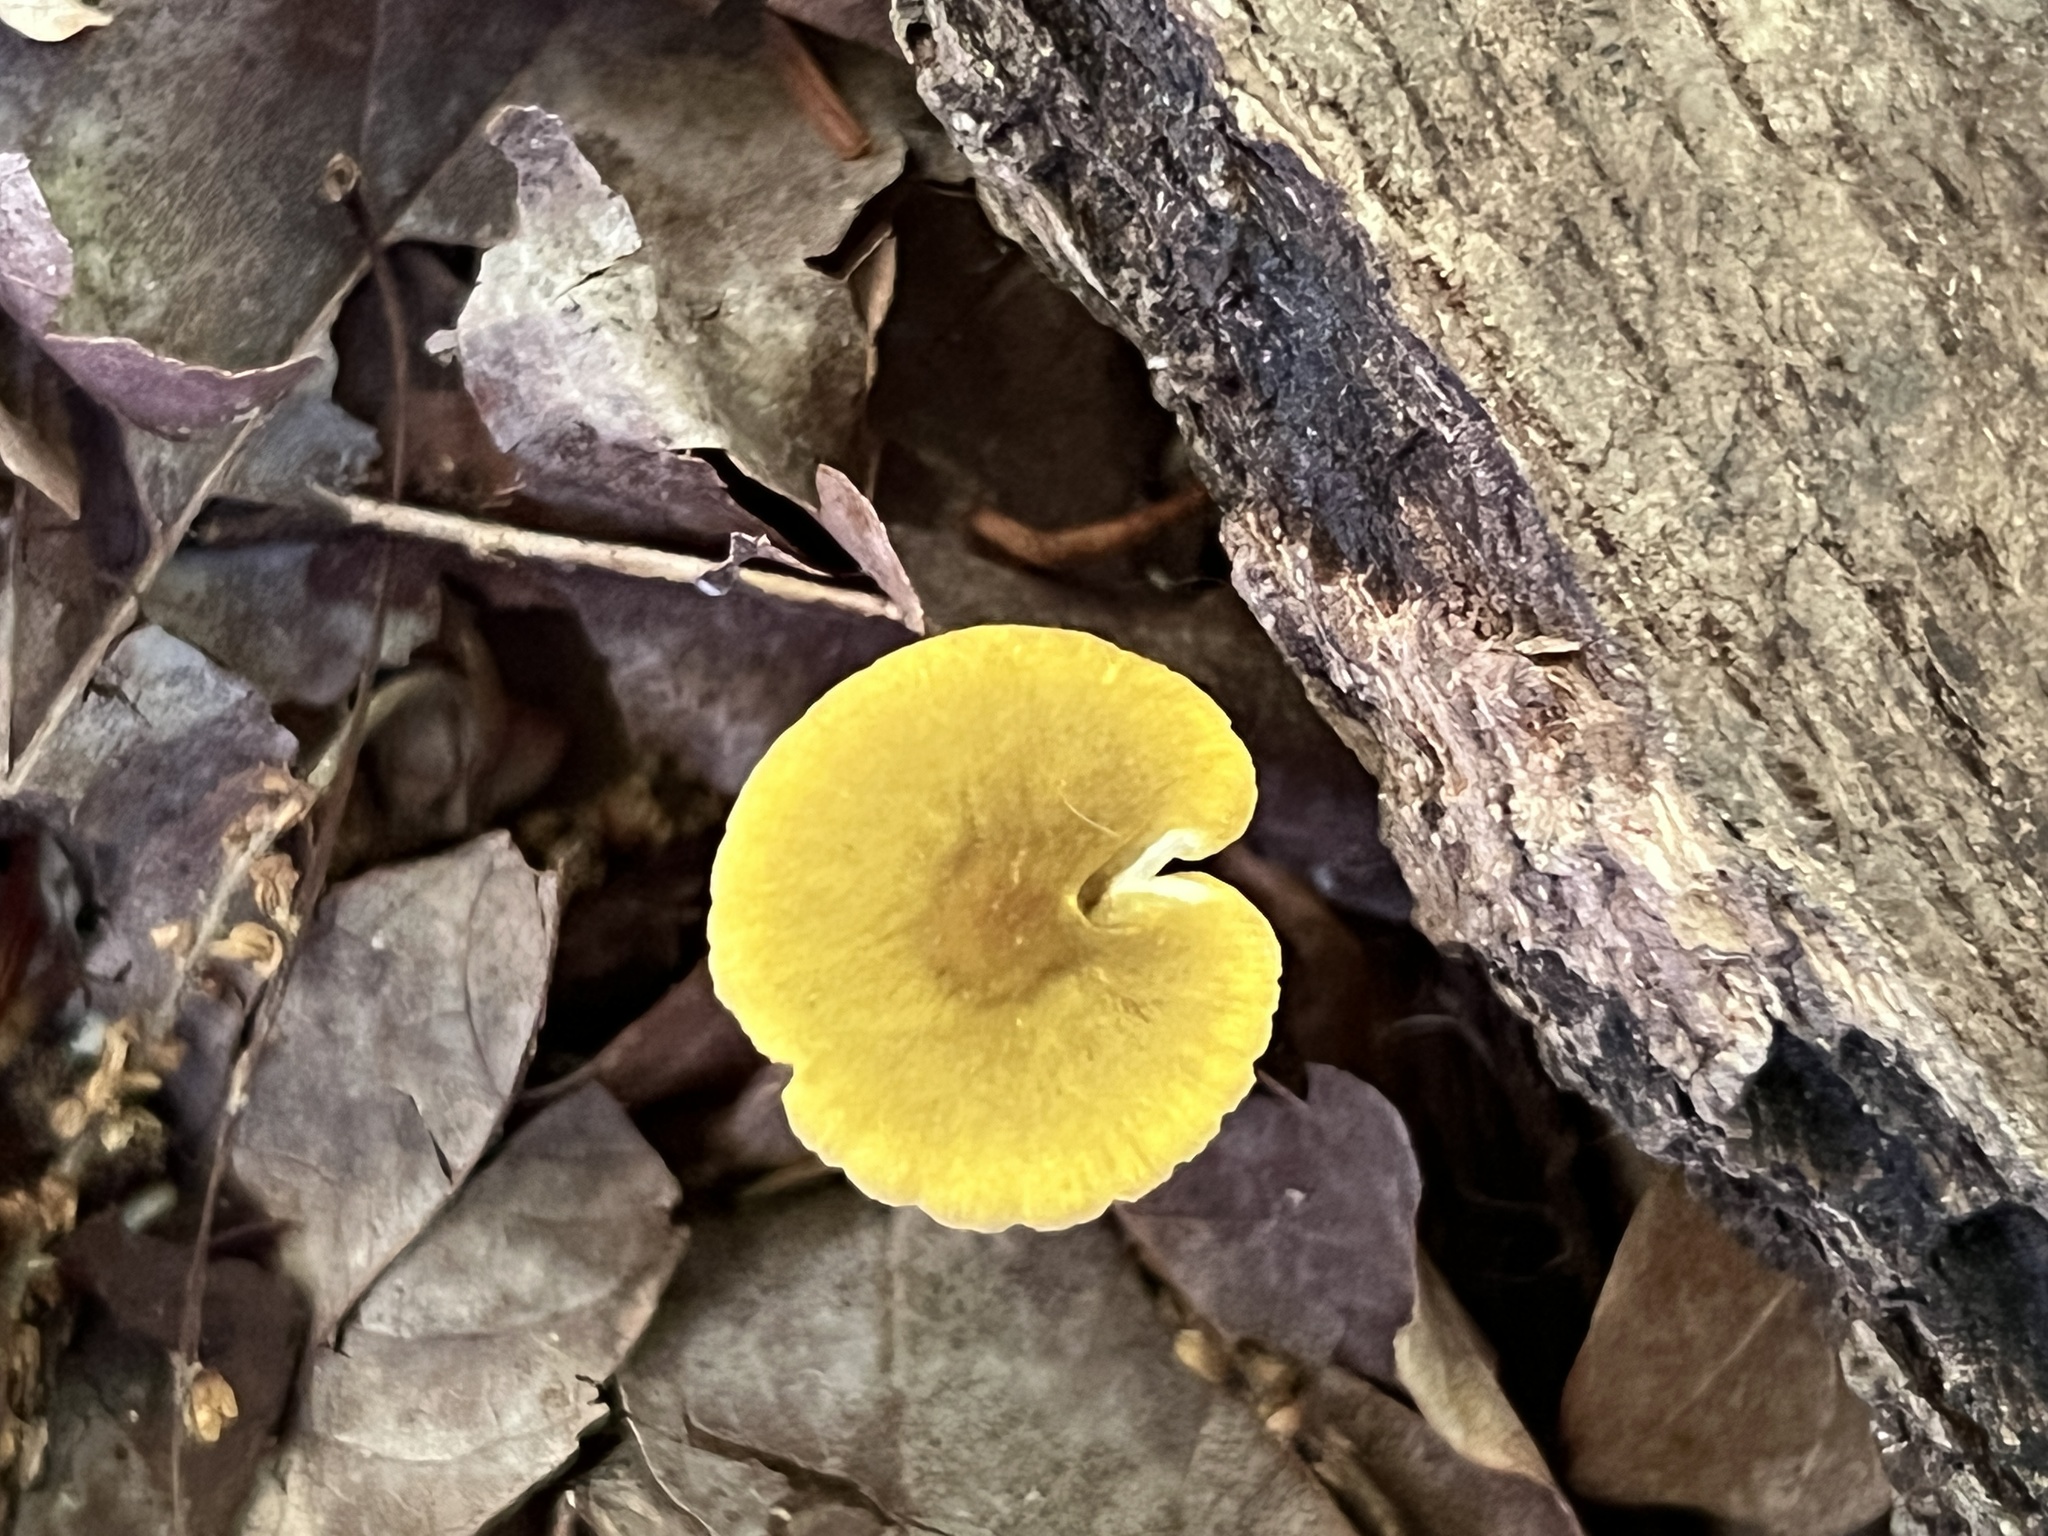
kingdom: Fungi
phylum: Basidiomycota
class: Agaricomycetes
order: Agaricales
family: Pluteaceae
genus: Pluteus
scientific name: Pluteus chrysophlebius
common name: Yellow deer mushroom
